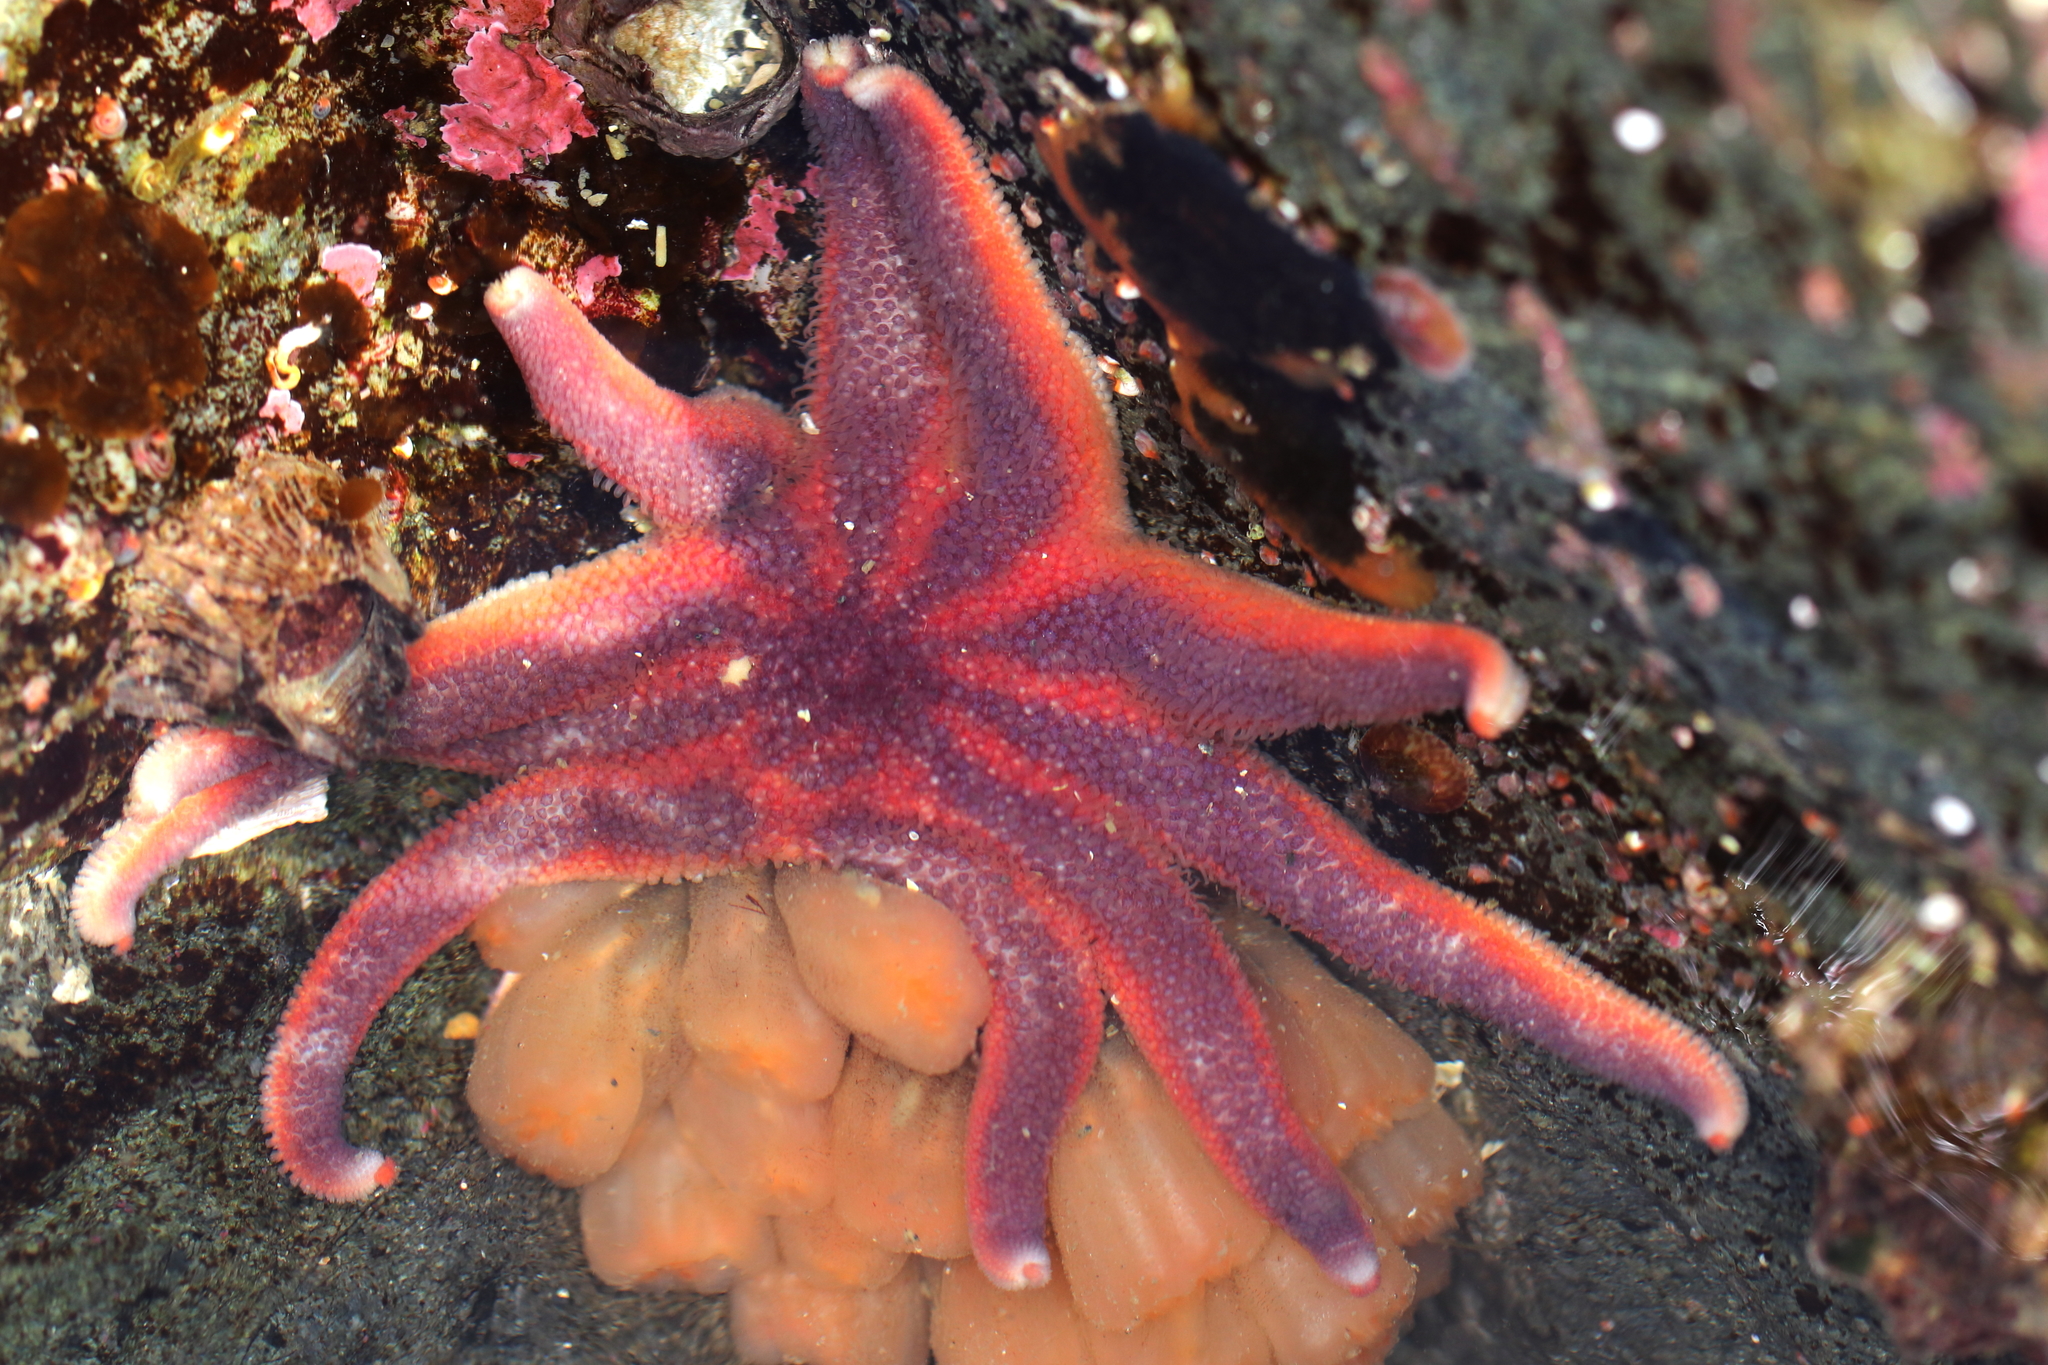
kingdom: Animalia
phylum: Echinodermata
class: Asteroidea
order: Valvatida
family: Solasteridae
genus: Solaster
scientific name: Solaster stimpsoni
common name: Orange sun star
